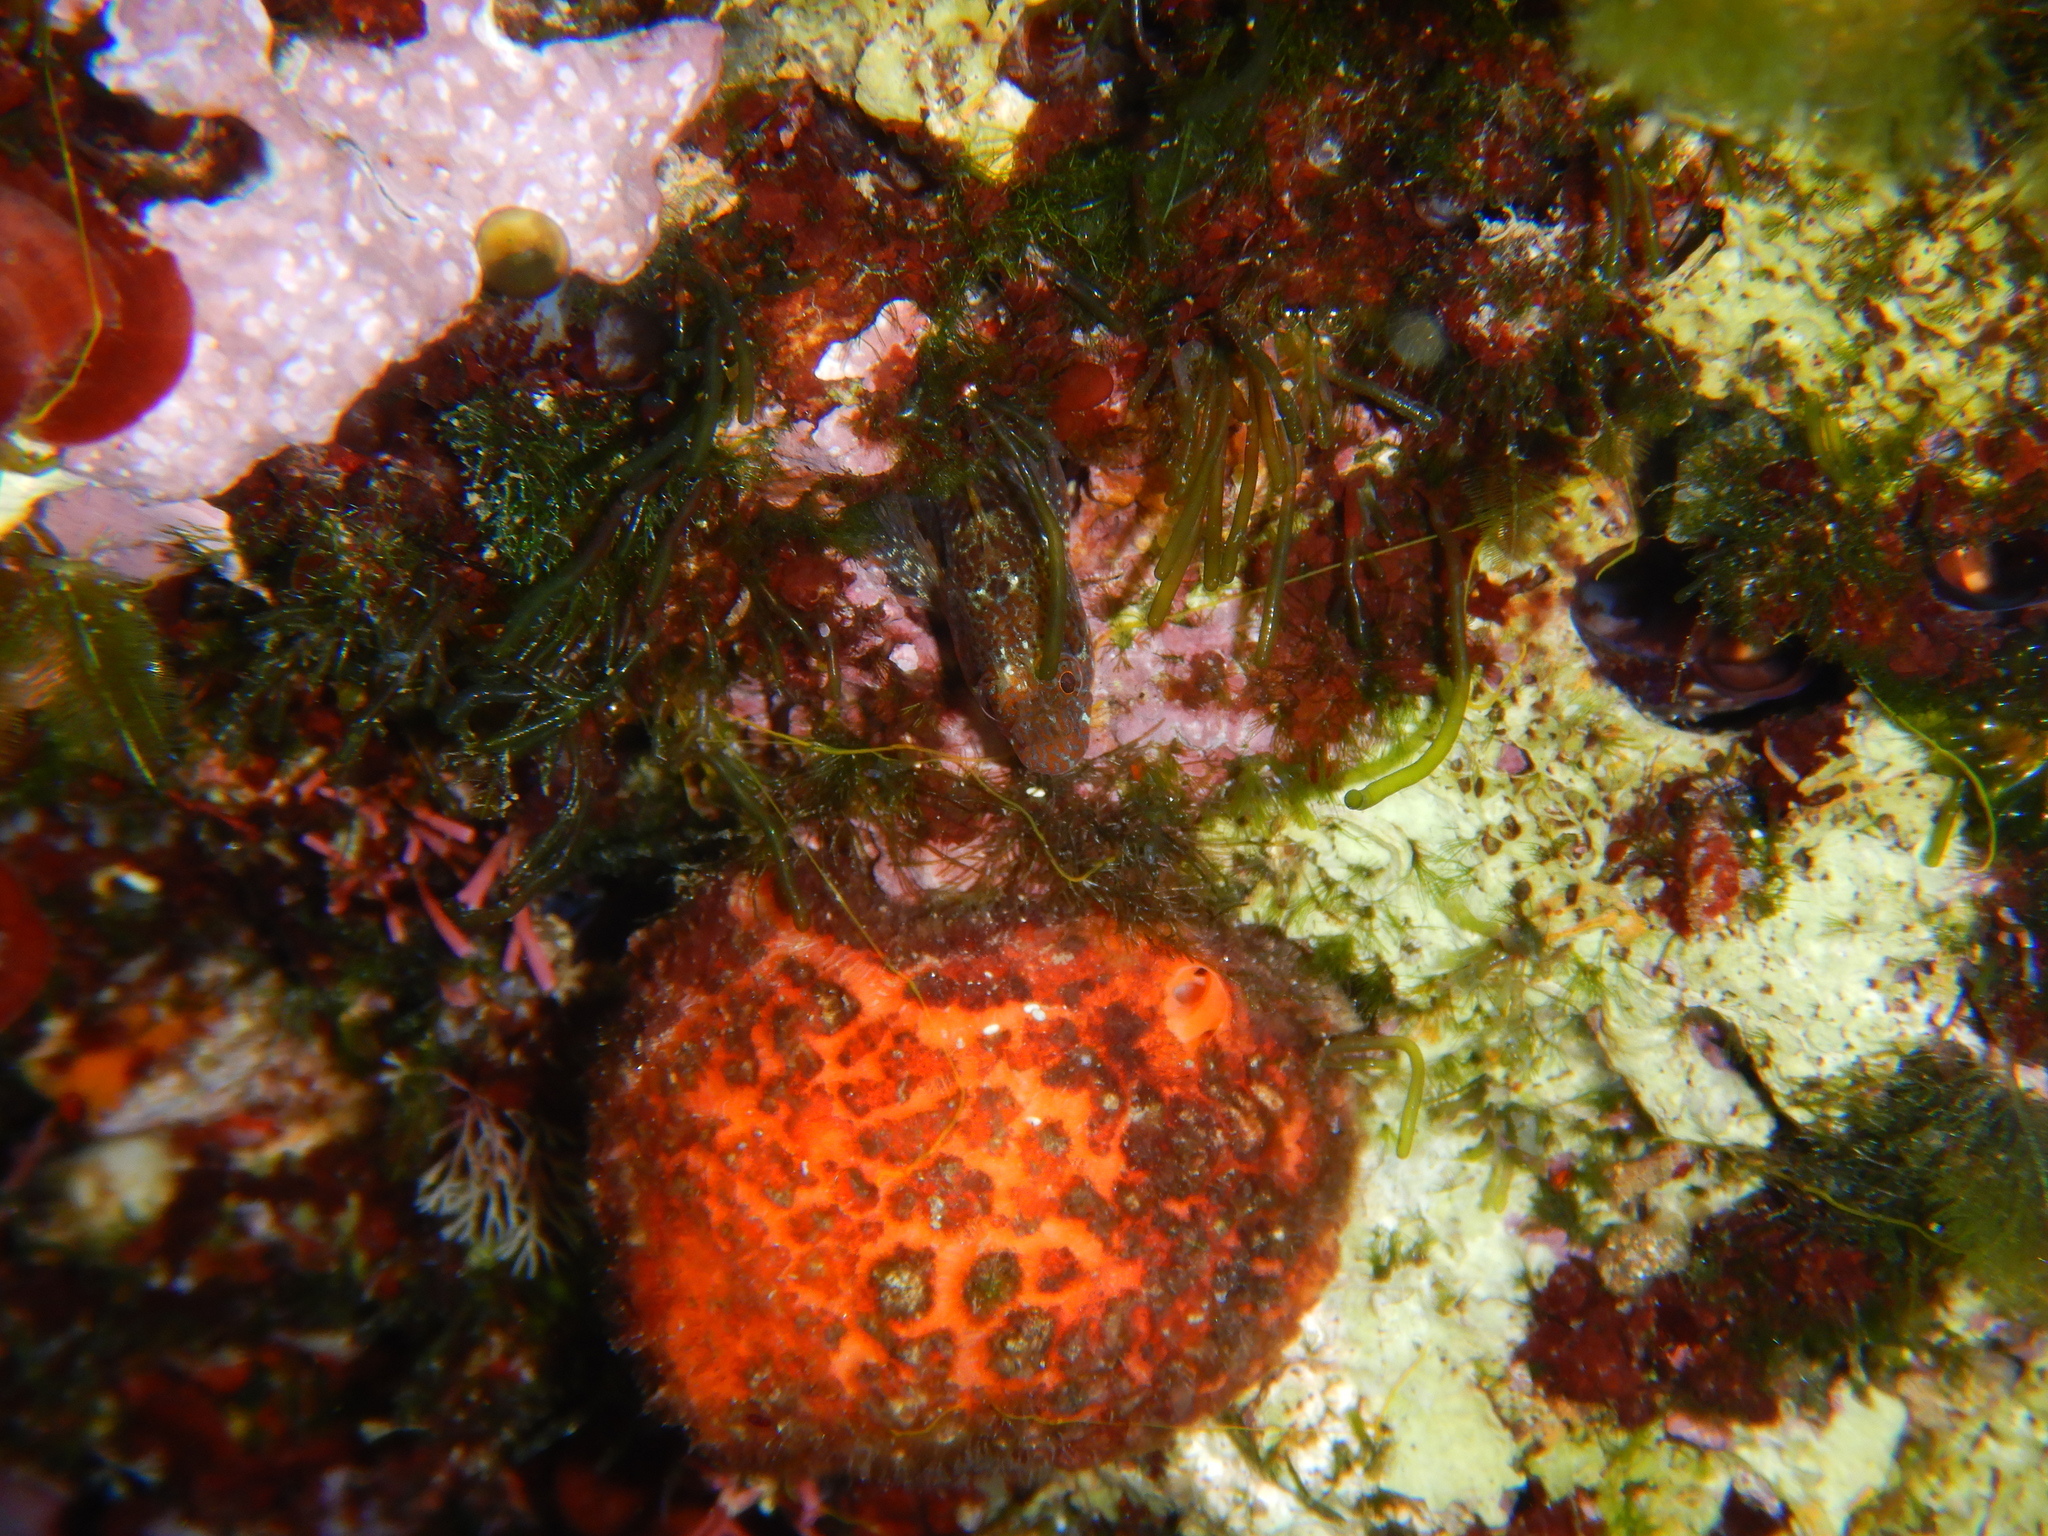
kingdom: Animalia
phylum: Porifera
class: Demospongiae
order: Tethyida
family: Tethyidae
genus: Tethya
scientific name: Tethya aurantium
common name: Golf ball sponge
